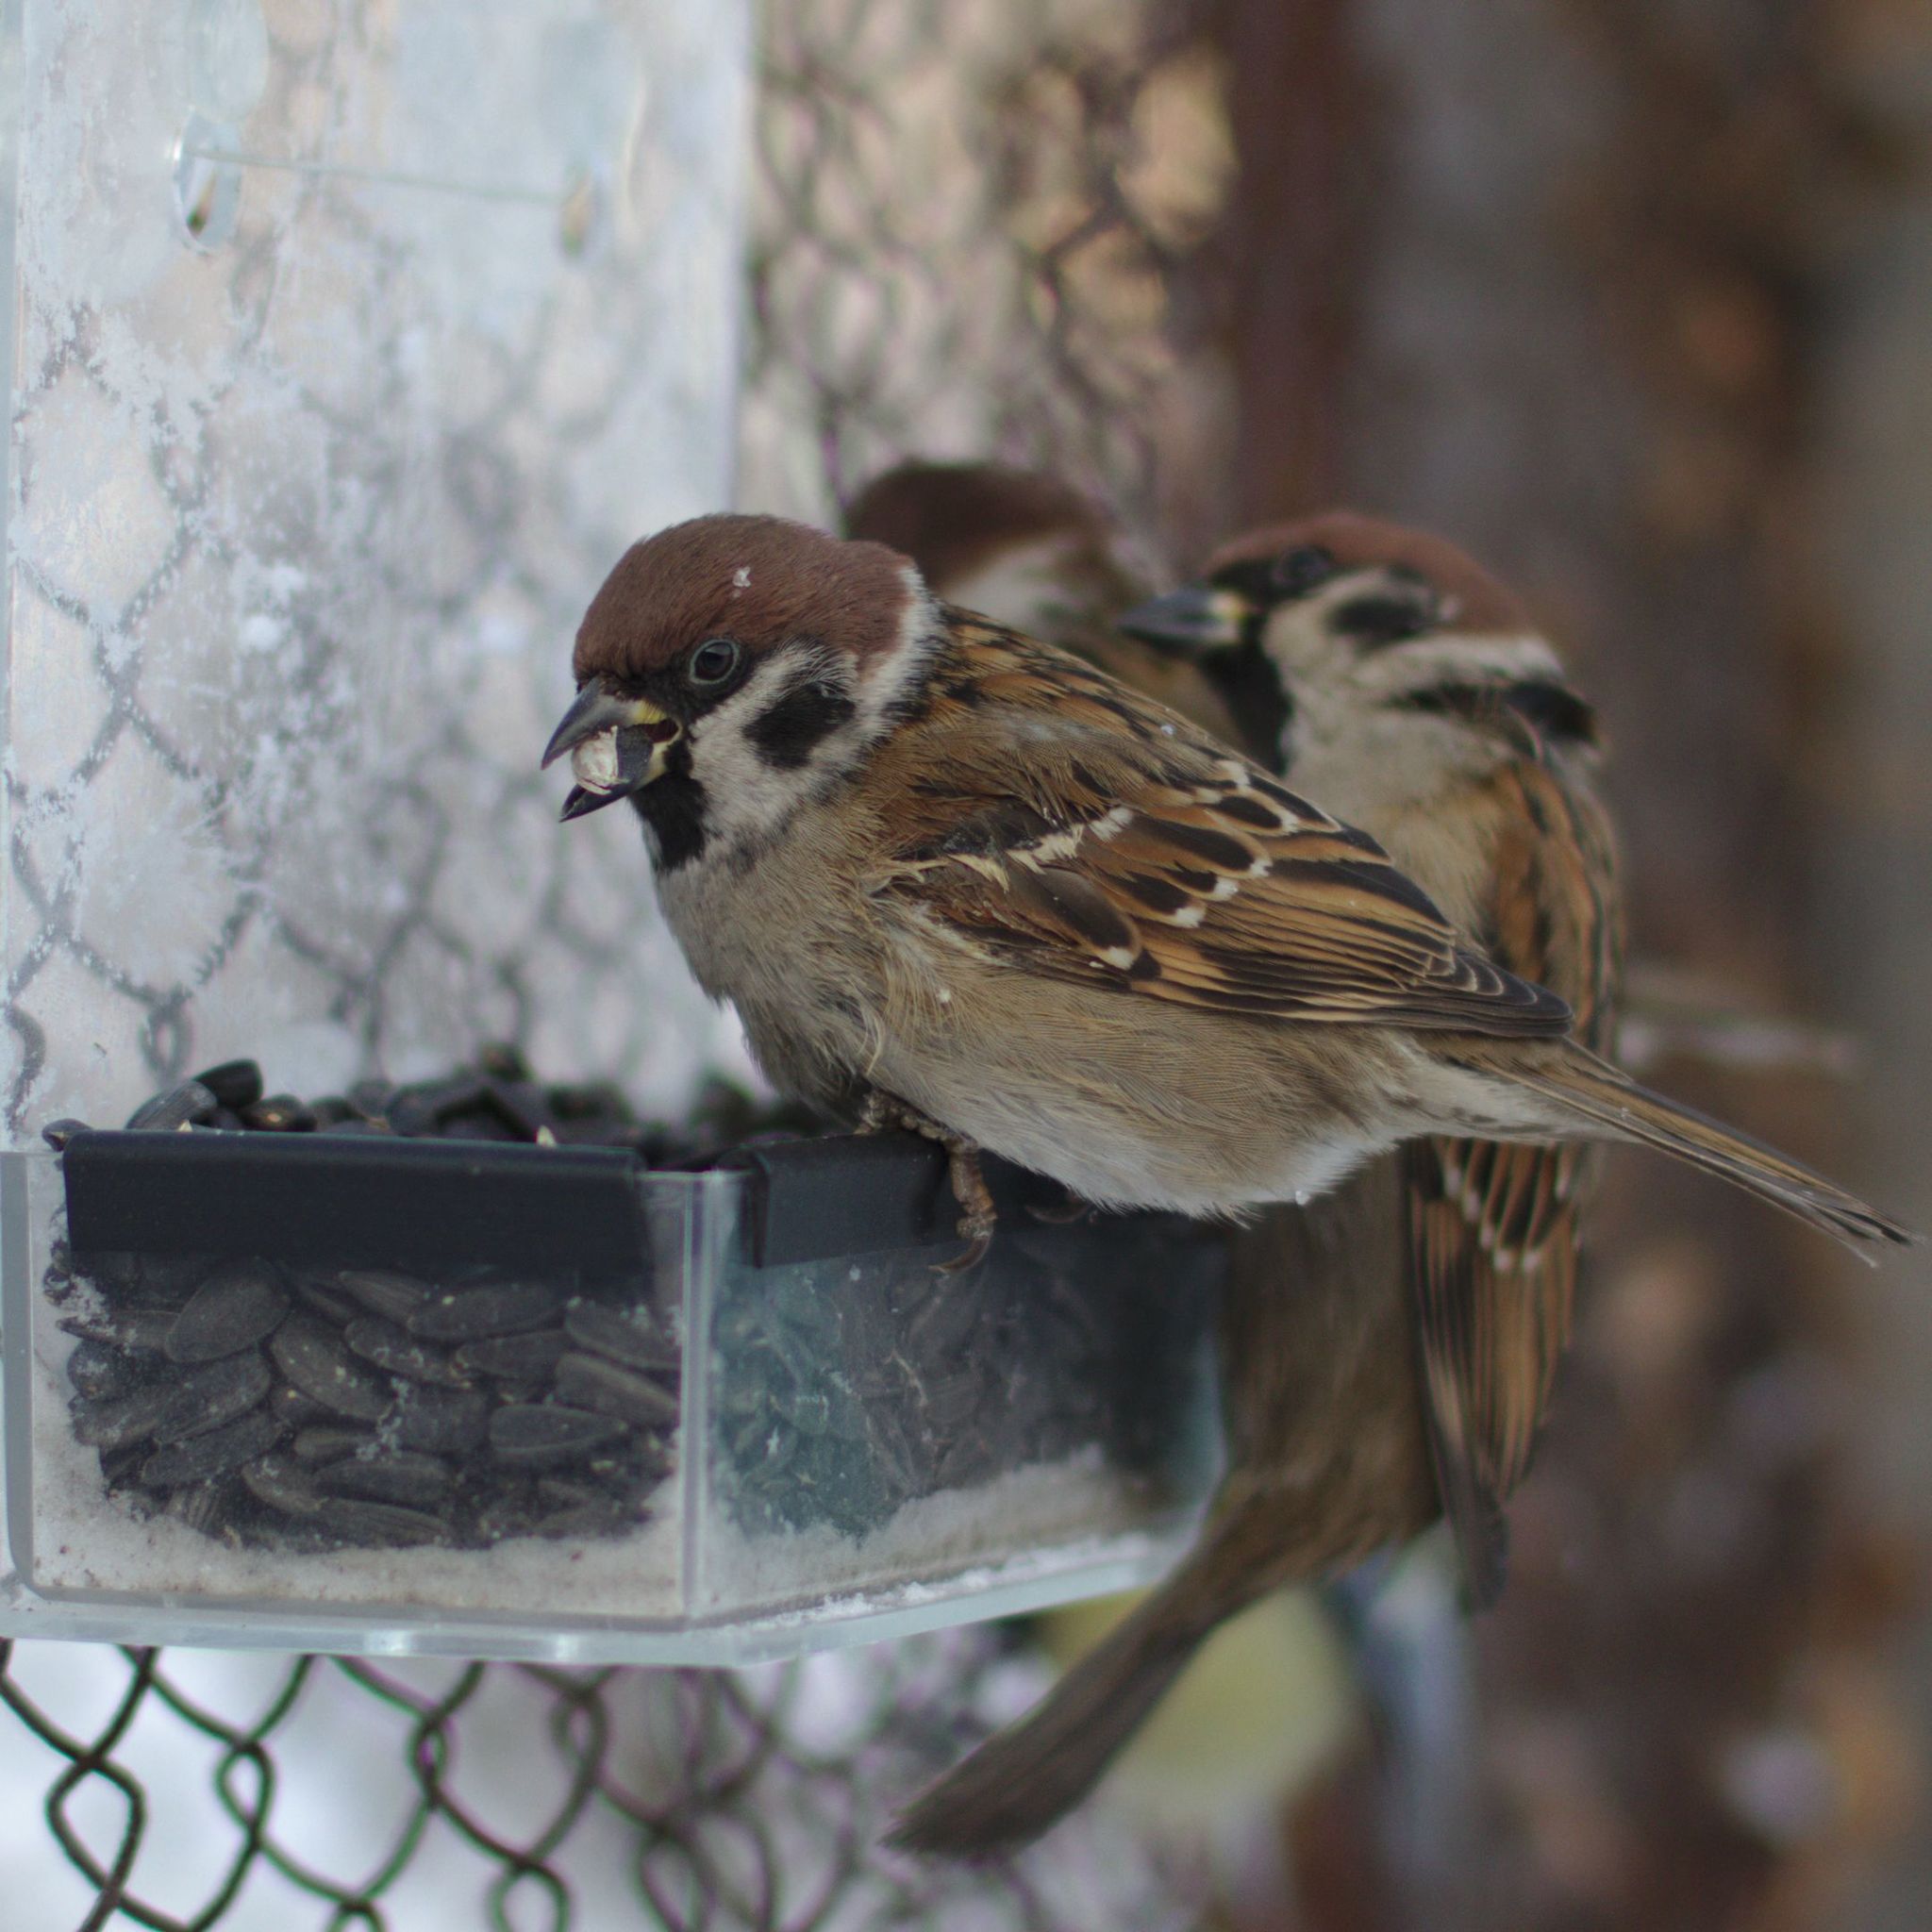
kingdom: Animalia
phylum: Chordata
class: Aves
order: Passeriformes
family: Passeridae
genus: Passer
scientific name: Passer montanus
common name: Eurasian tree sparrow
